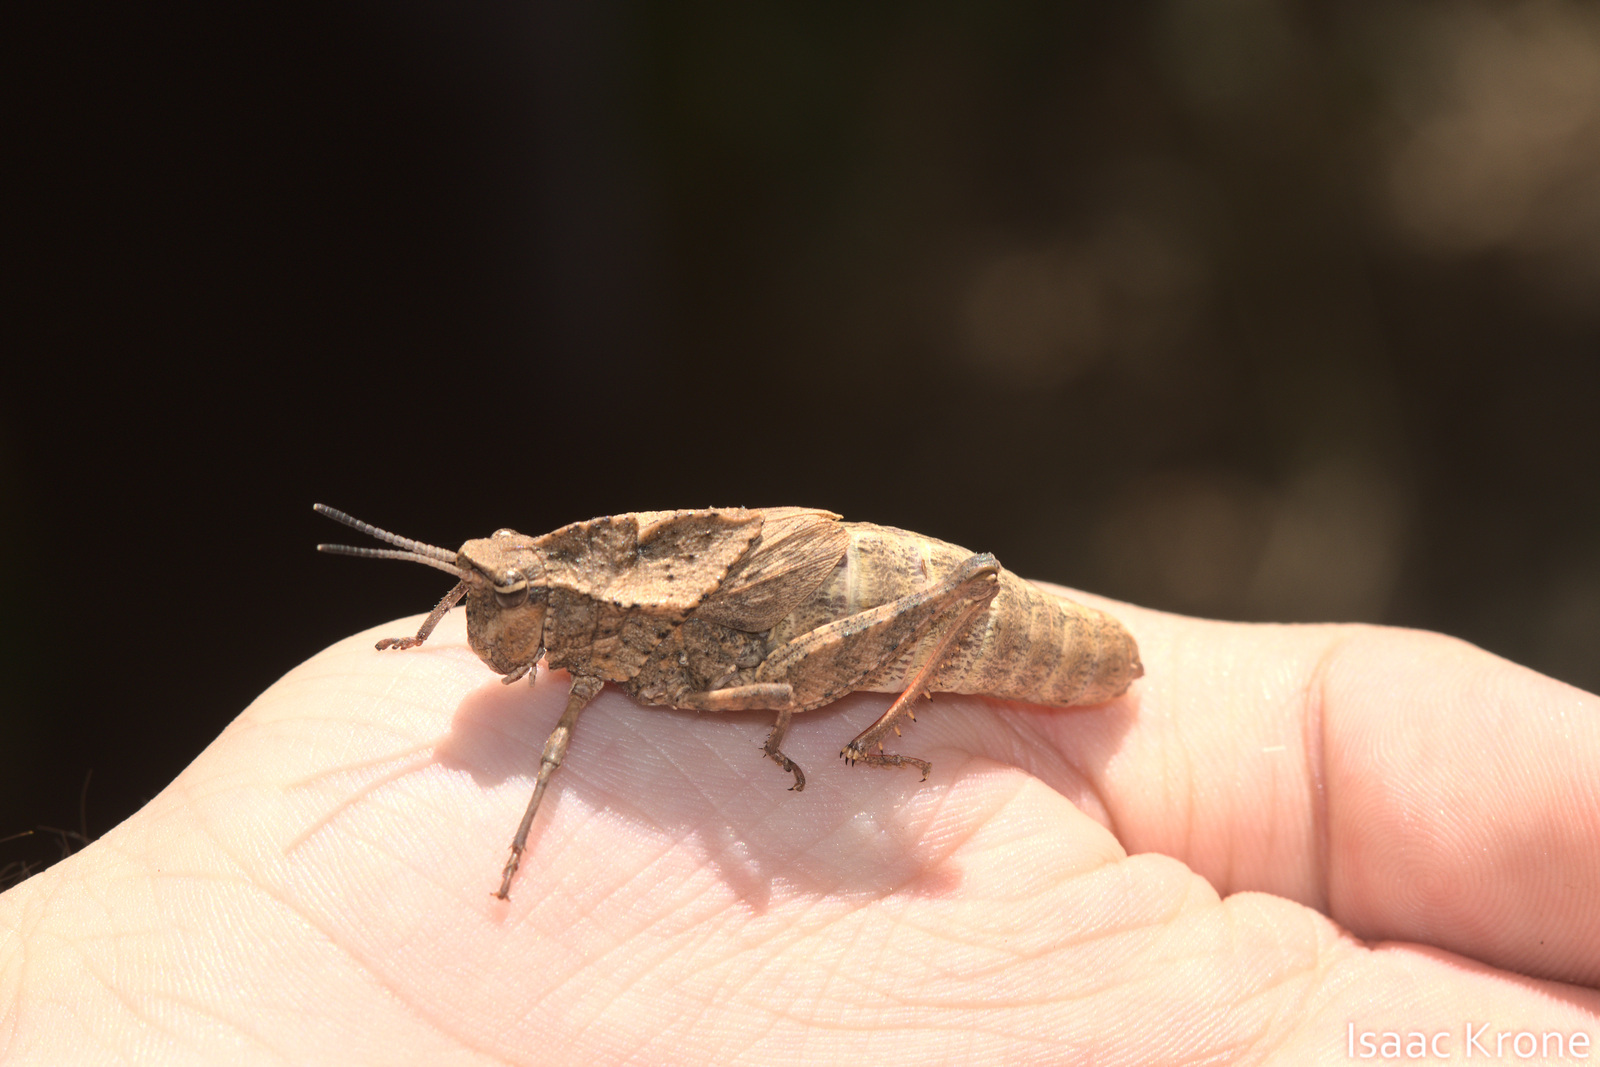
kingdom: Animalia
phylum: Arthropoda
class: Insecta
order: Orthoptera
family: Romaleidae
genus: Dracotettix
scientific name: Dracotettix monstrosus
